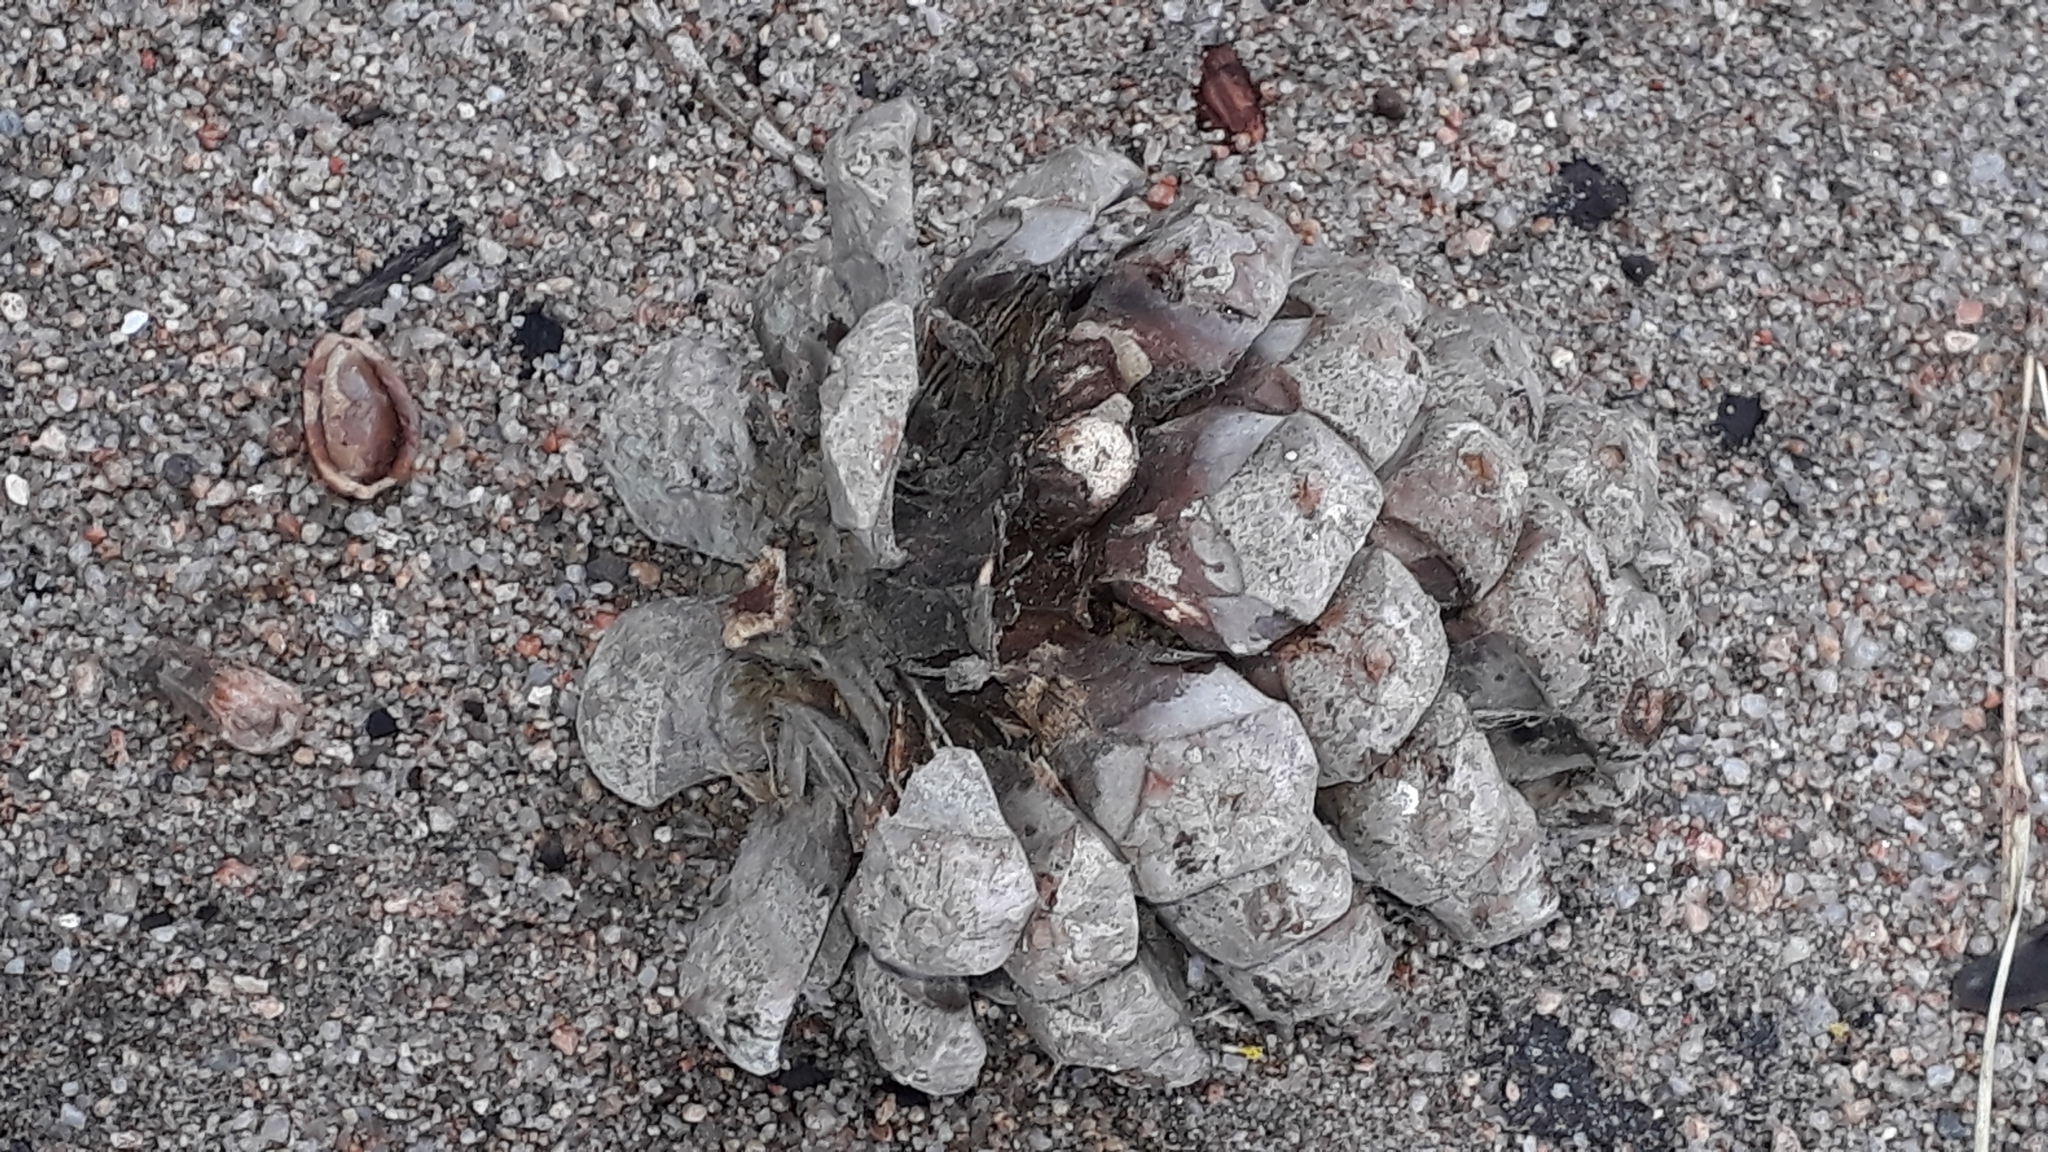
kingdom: Plantae
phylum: Tracheophyta
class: Pinopsida
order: Pinales
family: Pinaceae
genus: Pinus
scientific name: Pinus pinea
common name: Italian stone pine
